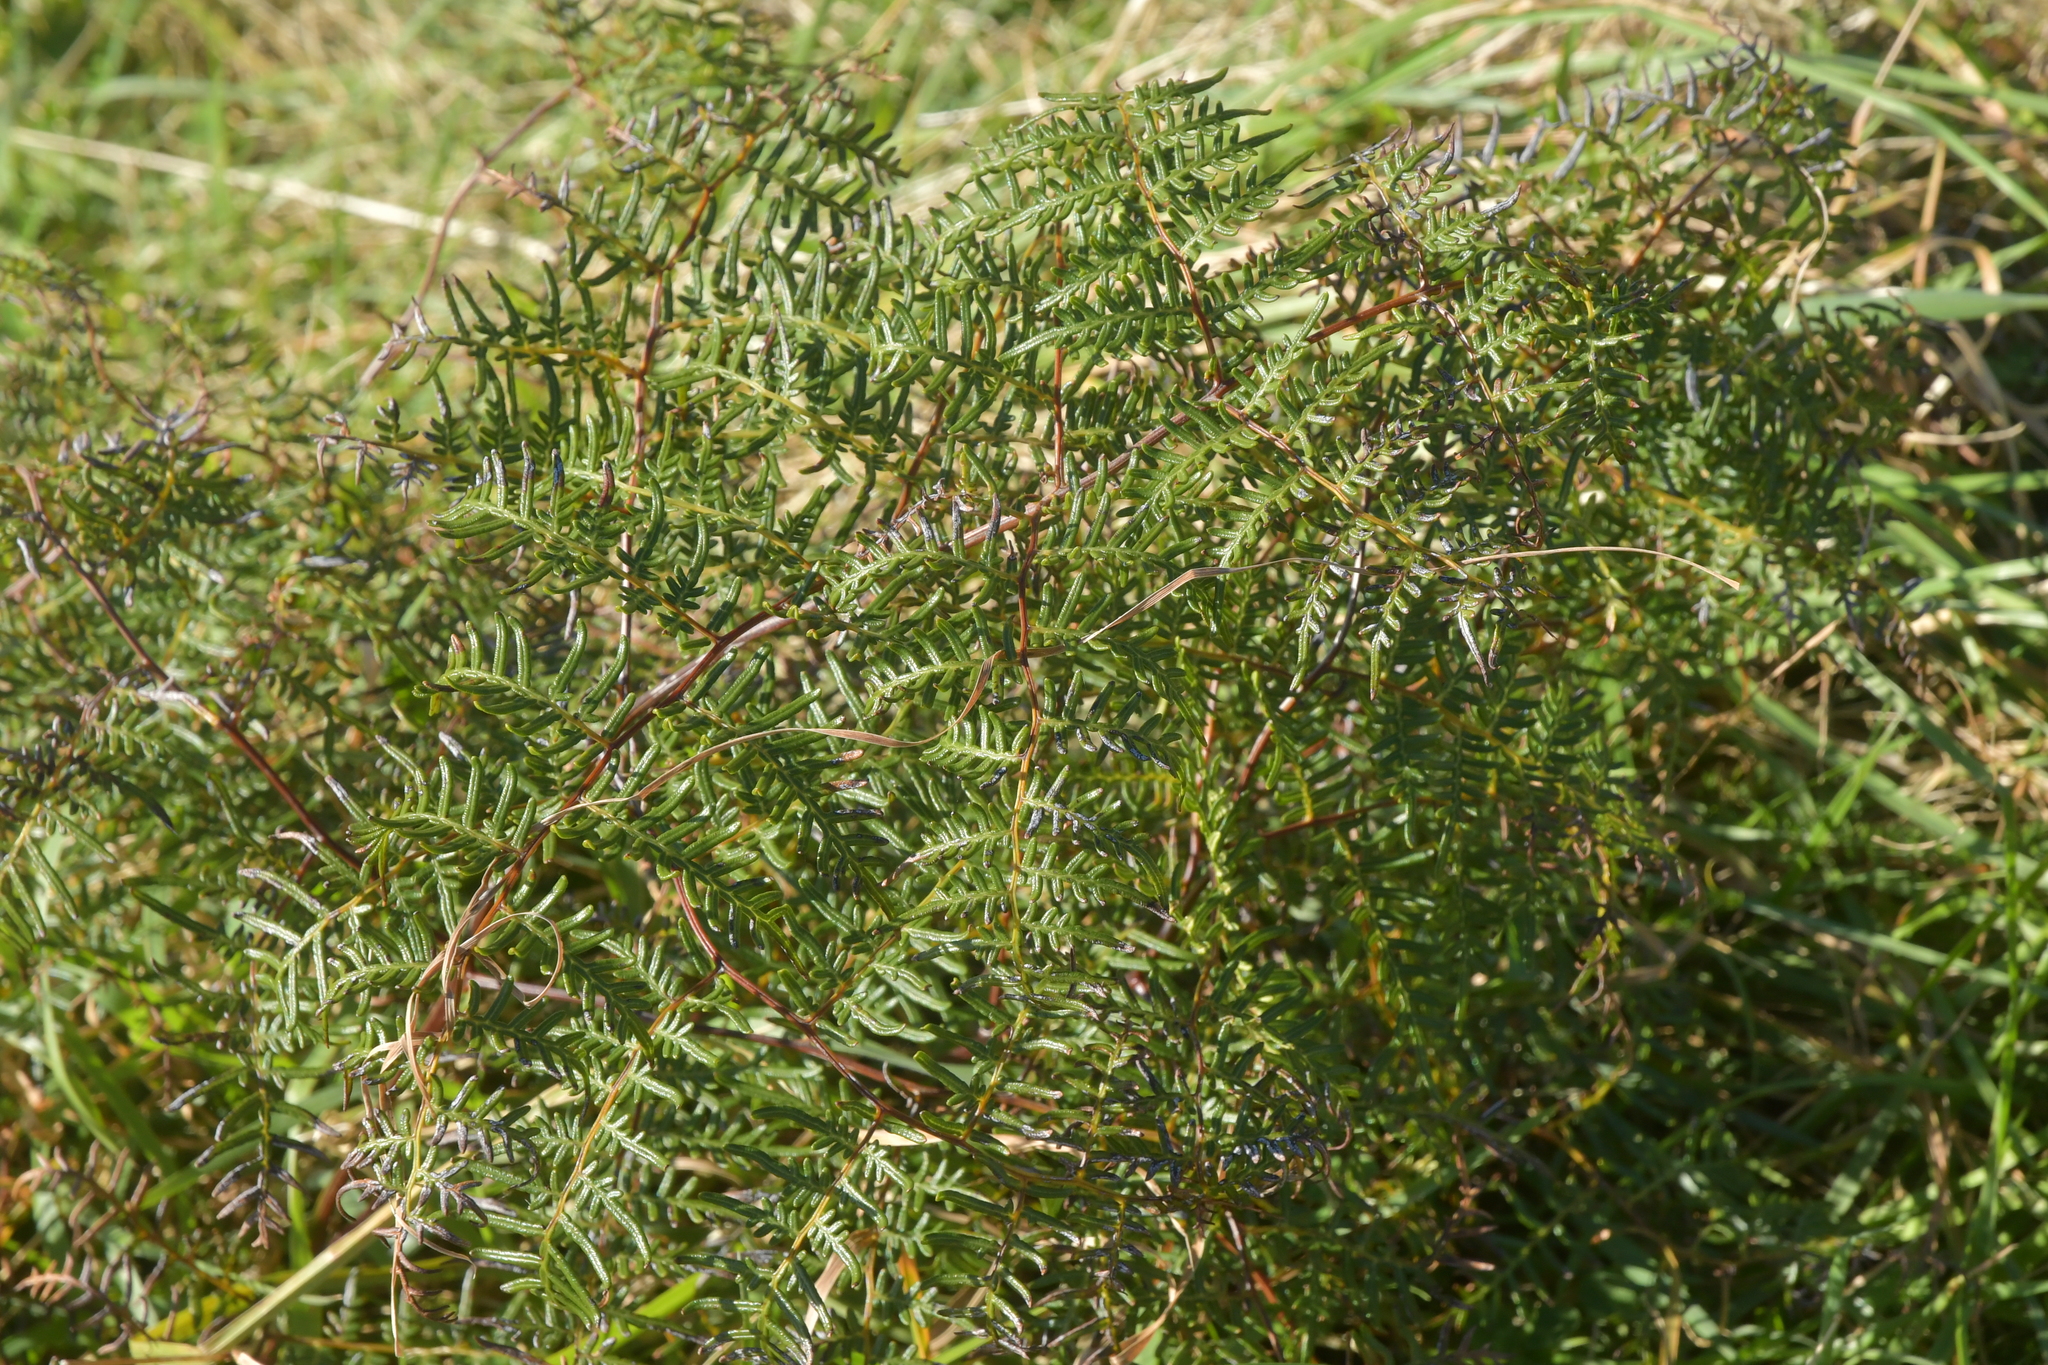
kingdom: Plantae
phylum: Tracheophyta
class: Polypodiopsida
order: Polypodiales
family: Dennstaedtiaceae
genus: Pteridium
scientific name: Pteridium esculentum
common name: Bracken fern
